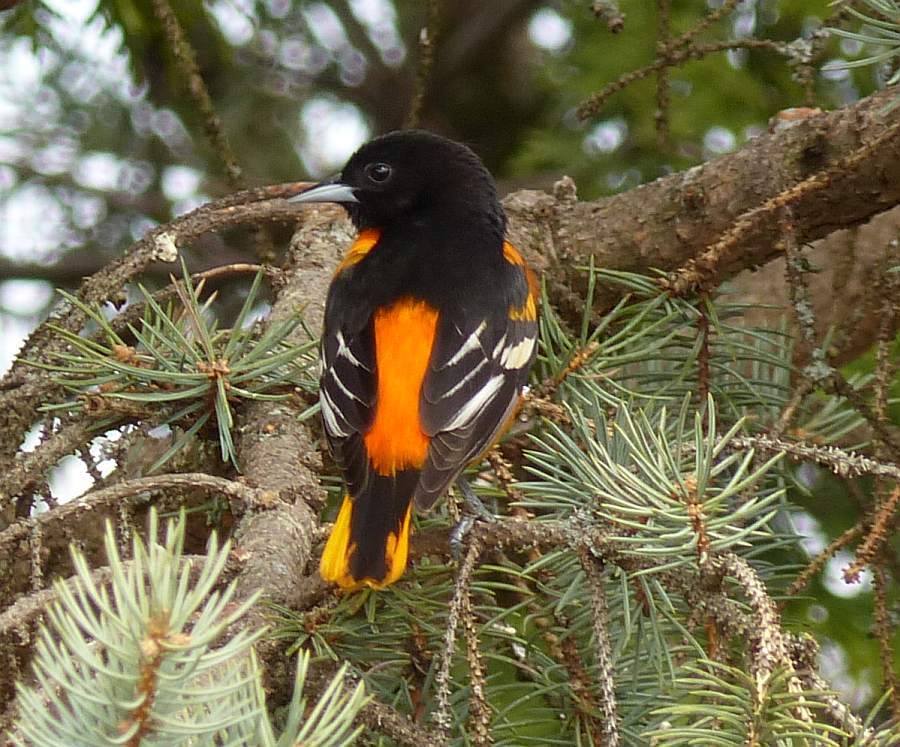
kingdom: Animalia
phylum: Chordata
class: Aves
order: Passeriformes
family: Icteridae
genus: Icterus
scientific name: Icterus galbula
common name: Baltimore oriole
